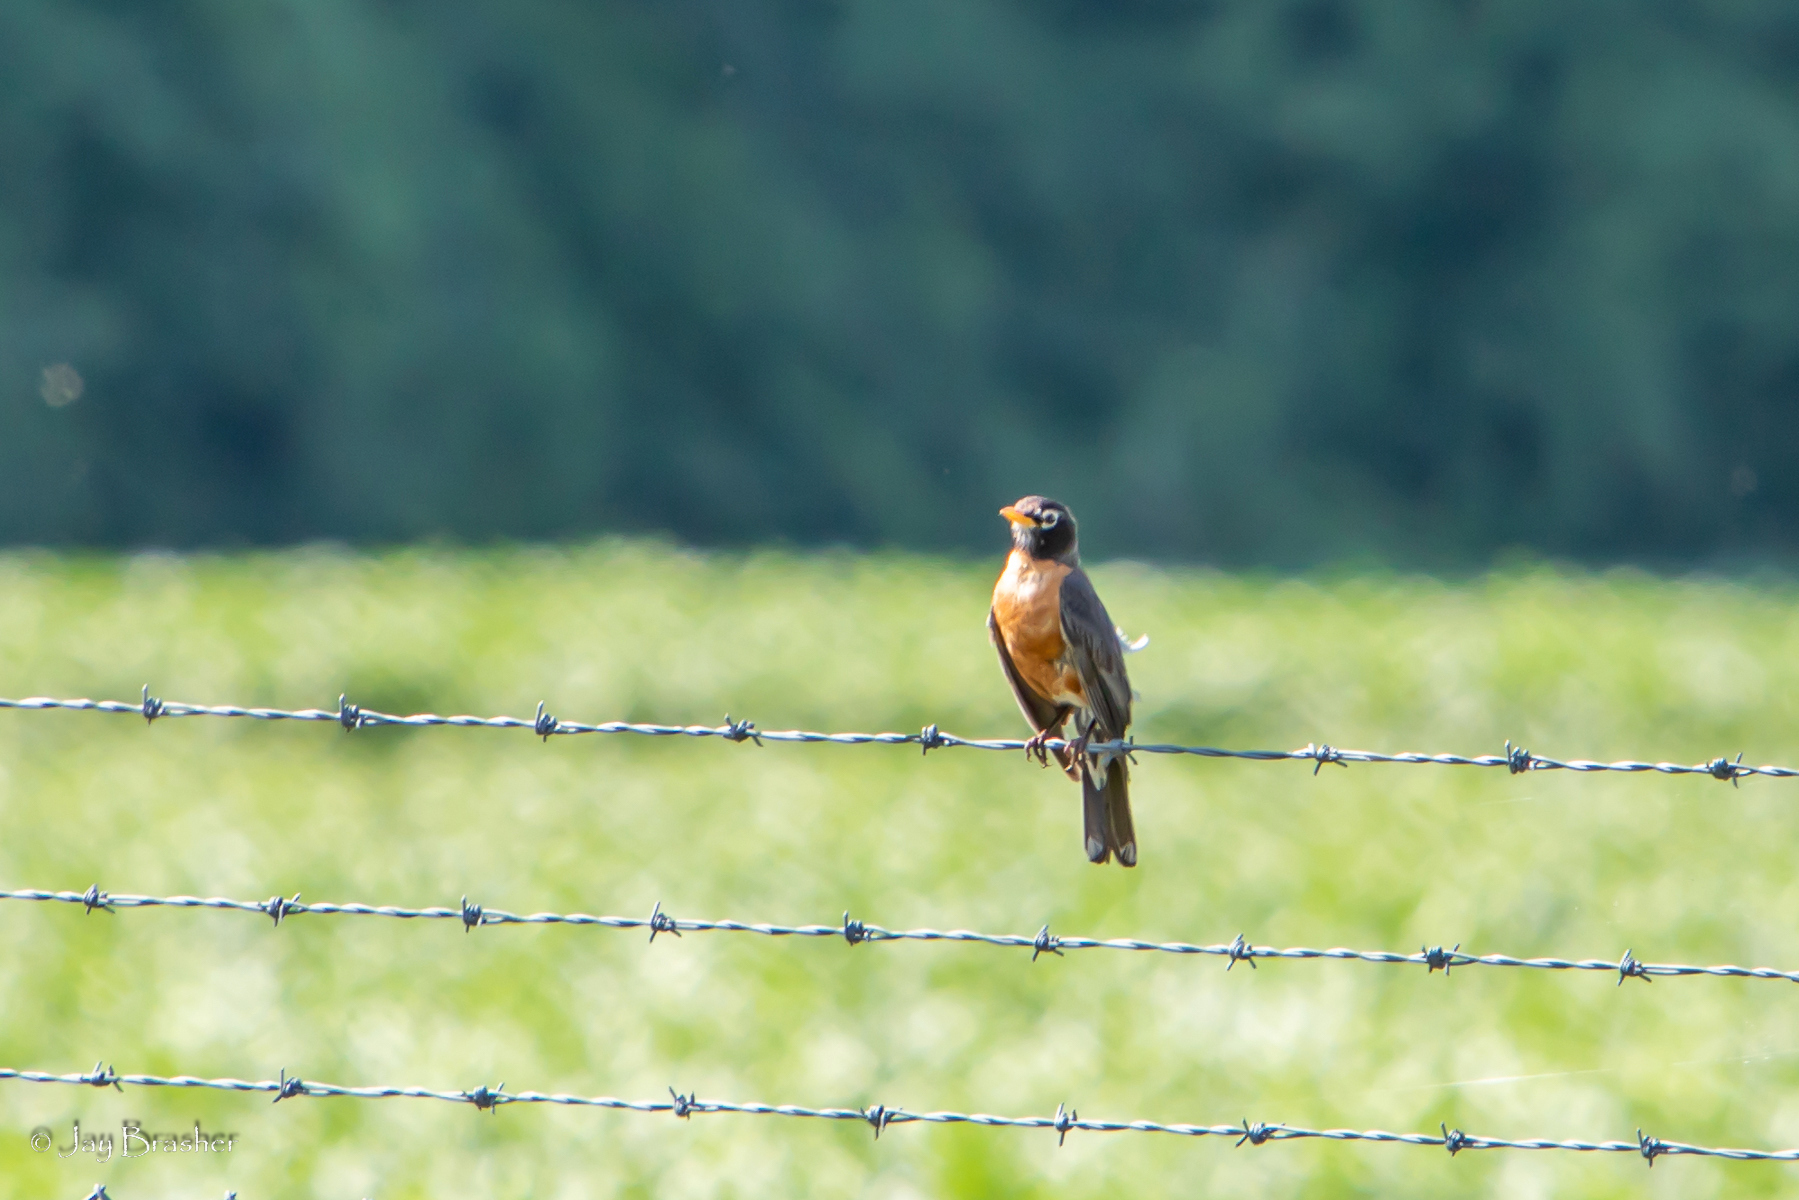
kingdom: Animalia
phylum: Chordata
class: Aves
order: Passeriformes
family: Turdidae
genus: Turdus
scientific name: Turdus migratorius
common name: American robin
